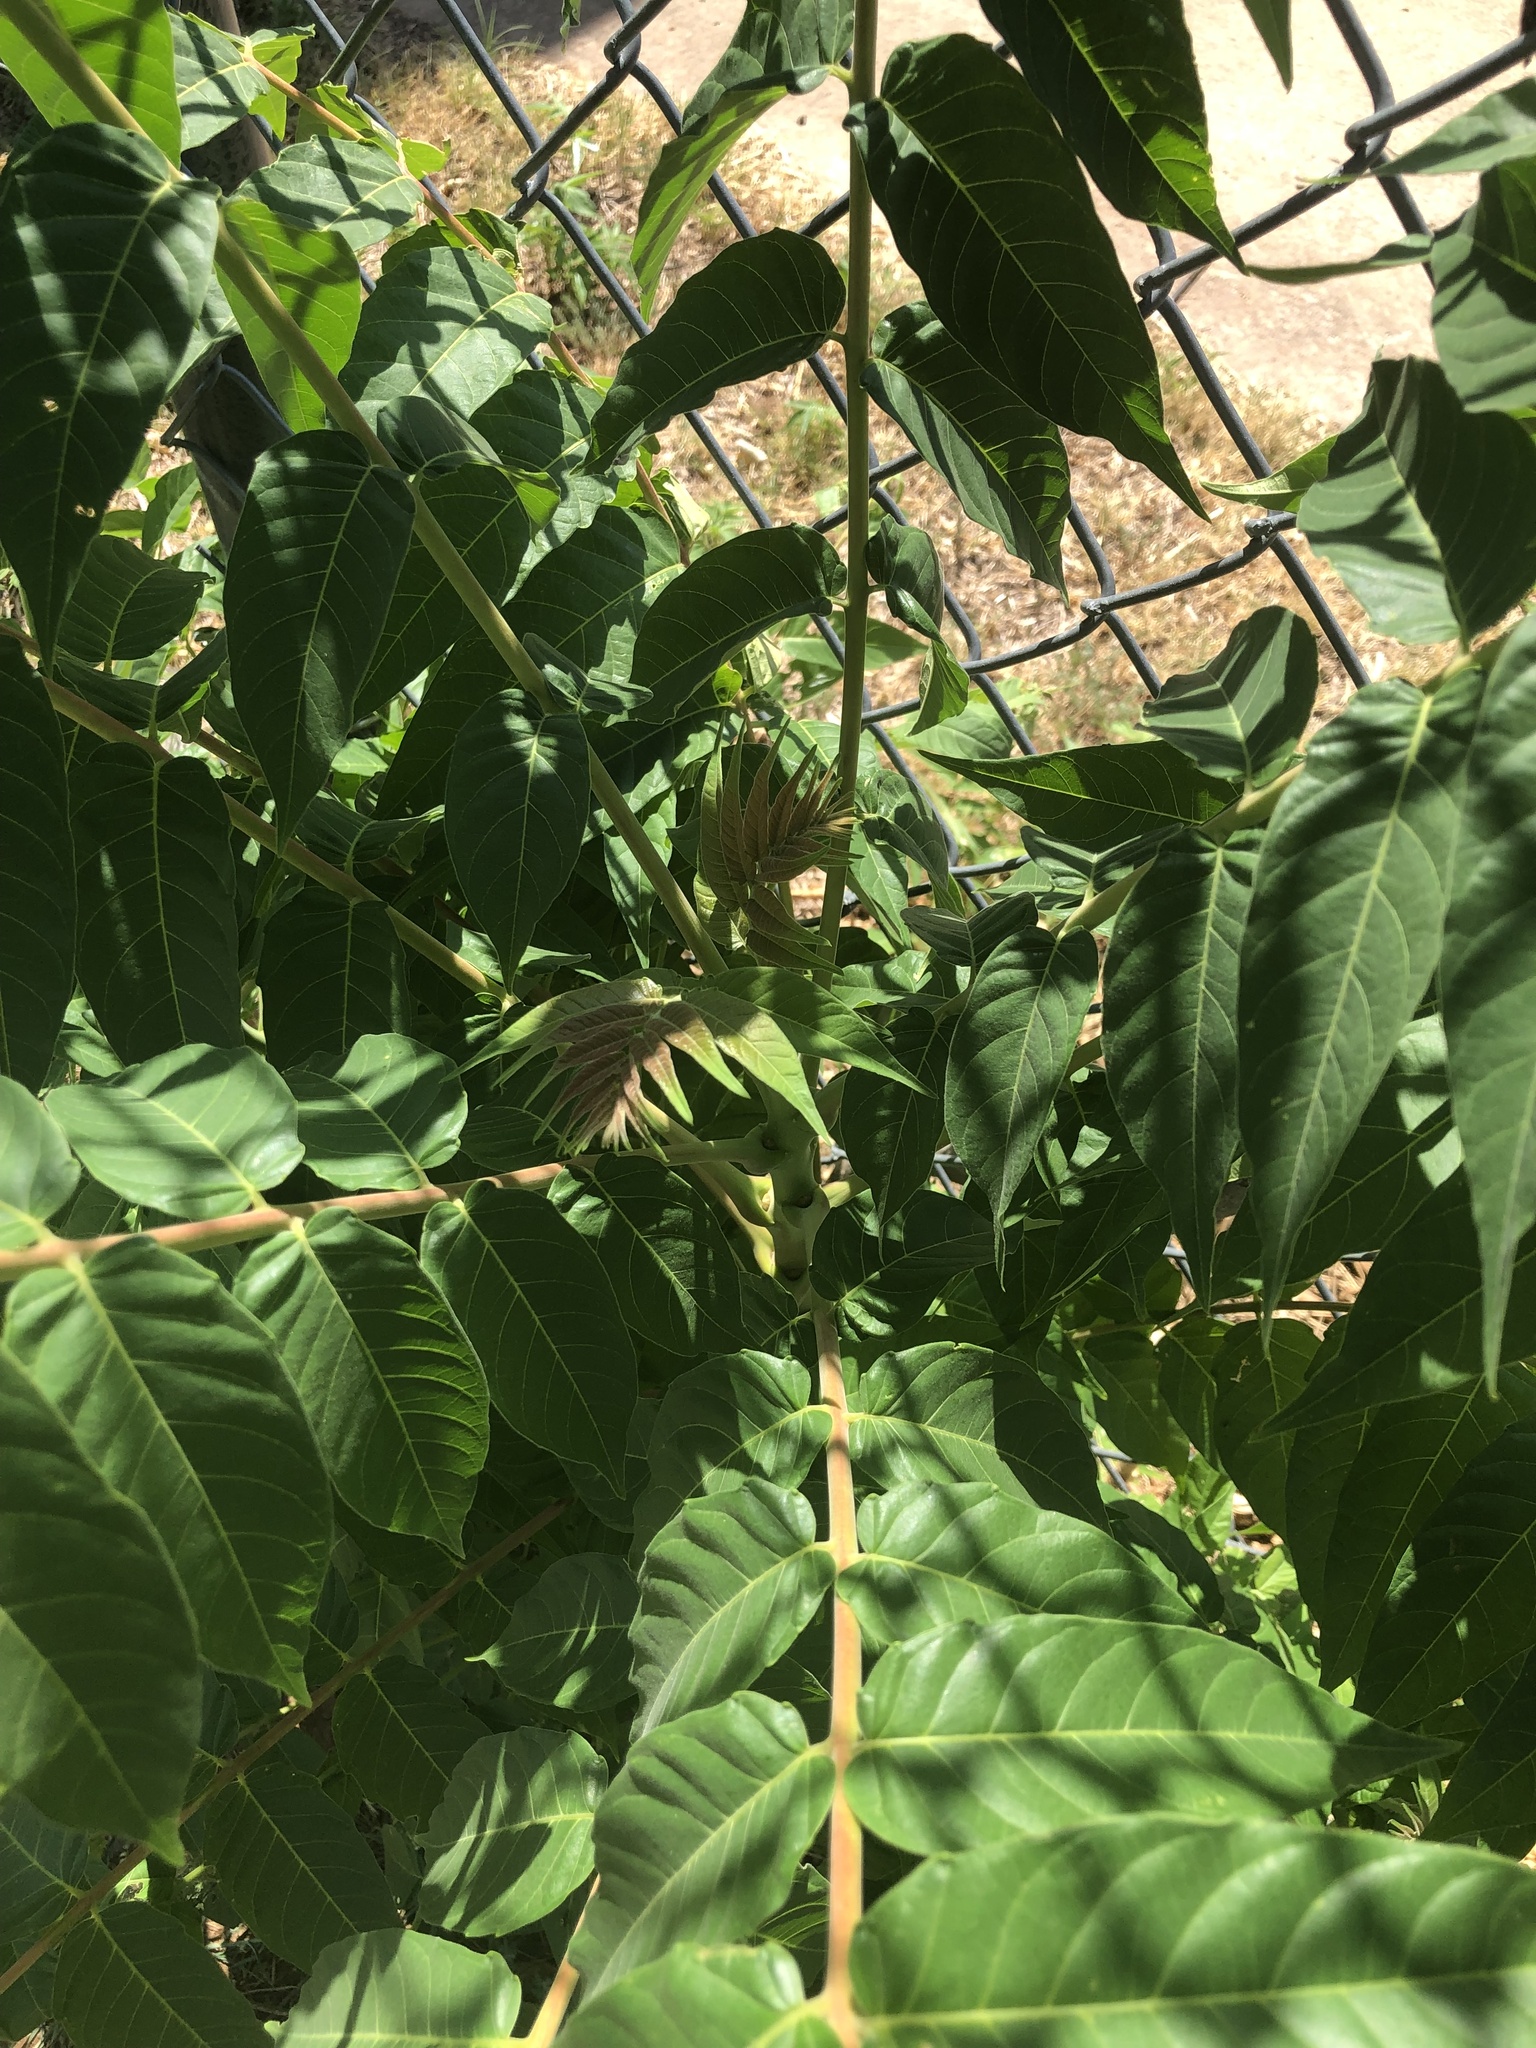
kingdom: Plantae
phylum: Tracheophyta
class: Magnoliopsida
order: Sapindales
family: Simaroubaceae
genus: Ailanthus
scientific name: Ailanthus altissima
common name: Tree-of-heaven
